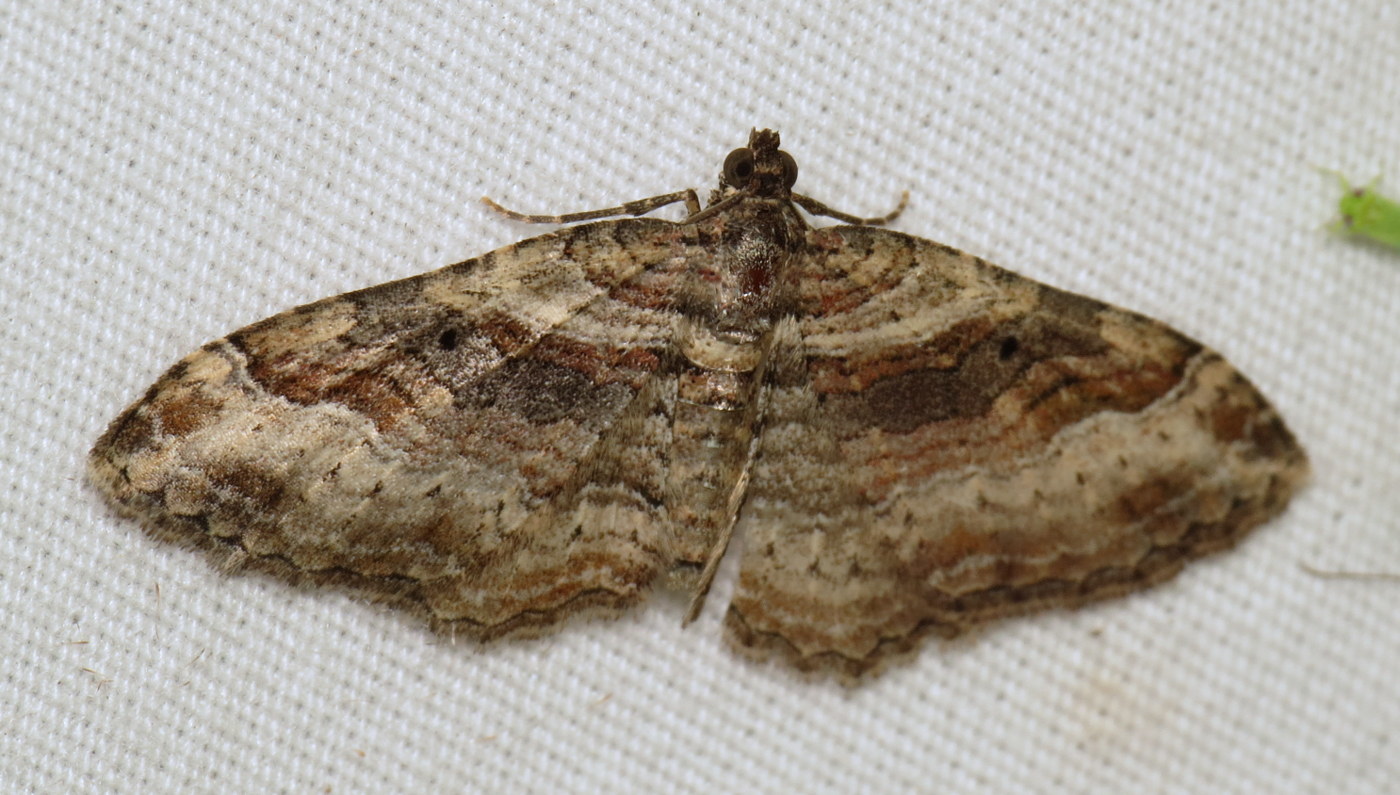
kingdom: Animalia
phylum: Arthropoda
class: Insecta
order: Lepidoptera
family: Geometridae
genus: Costaconvexa
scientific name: Costaconvexa centrostrigaria
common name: Bent-line carpet
